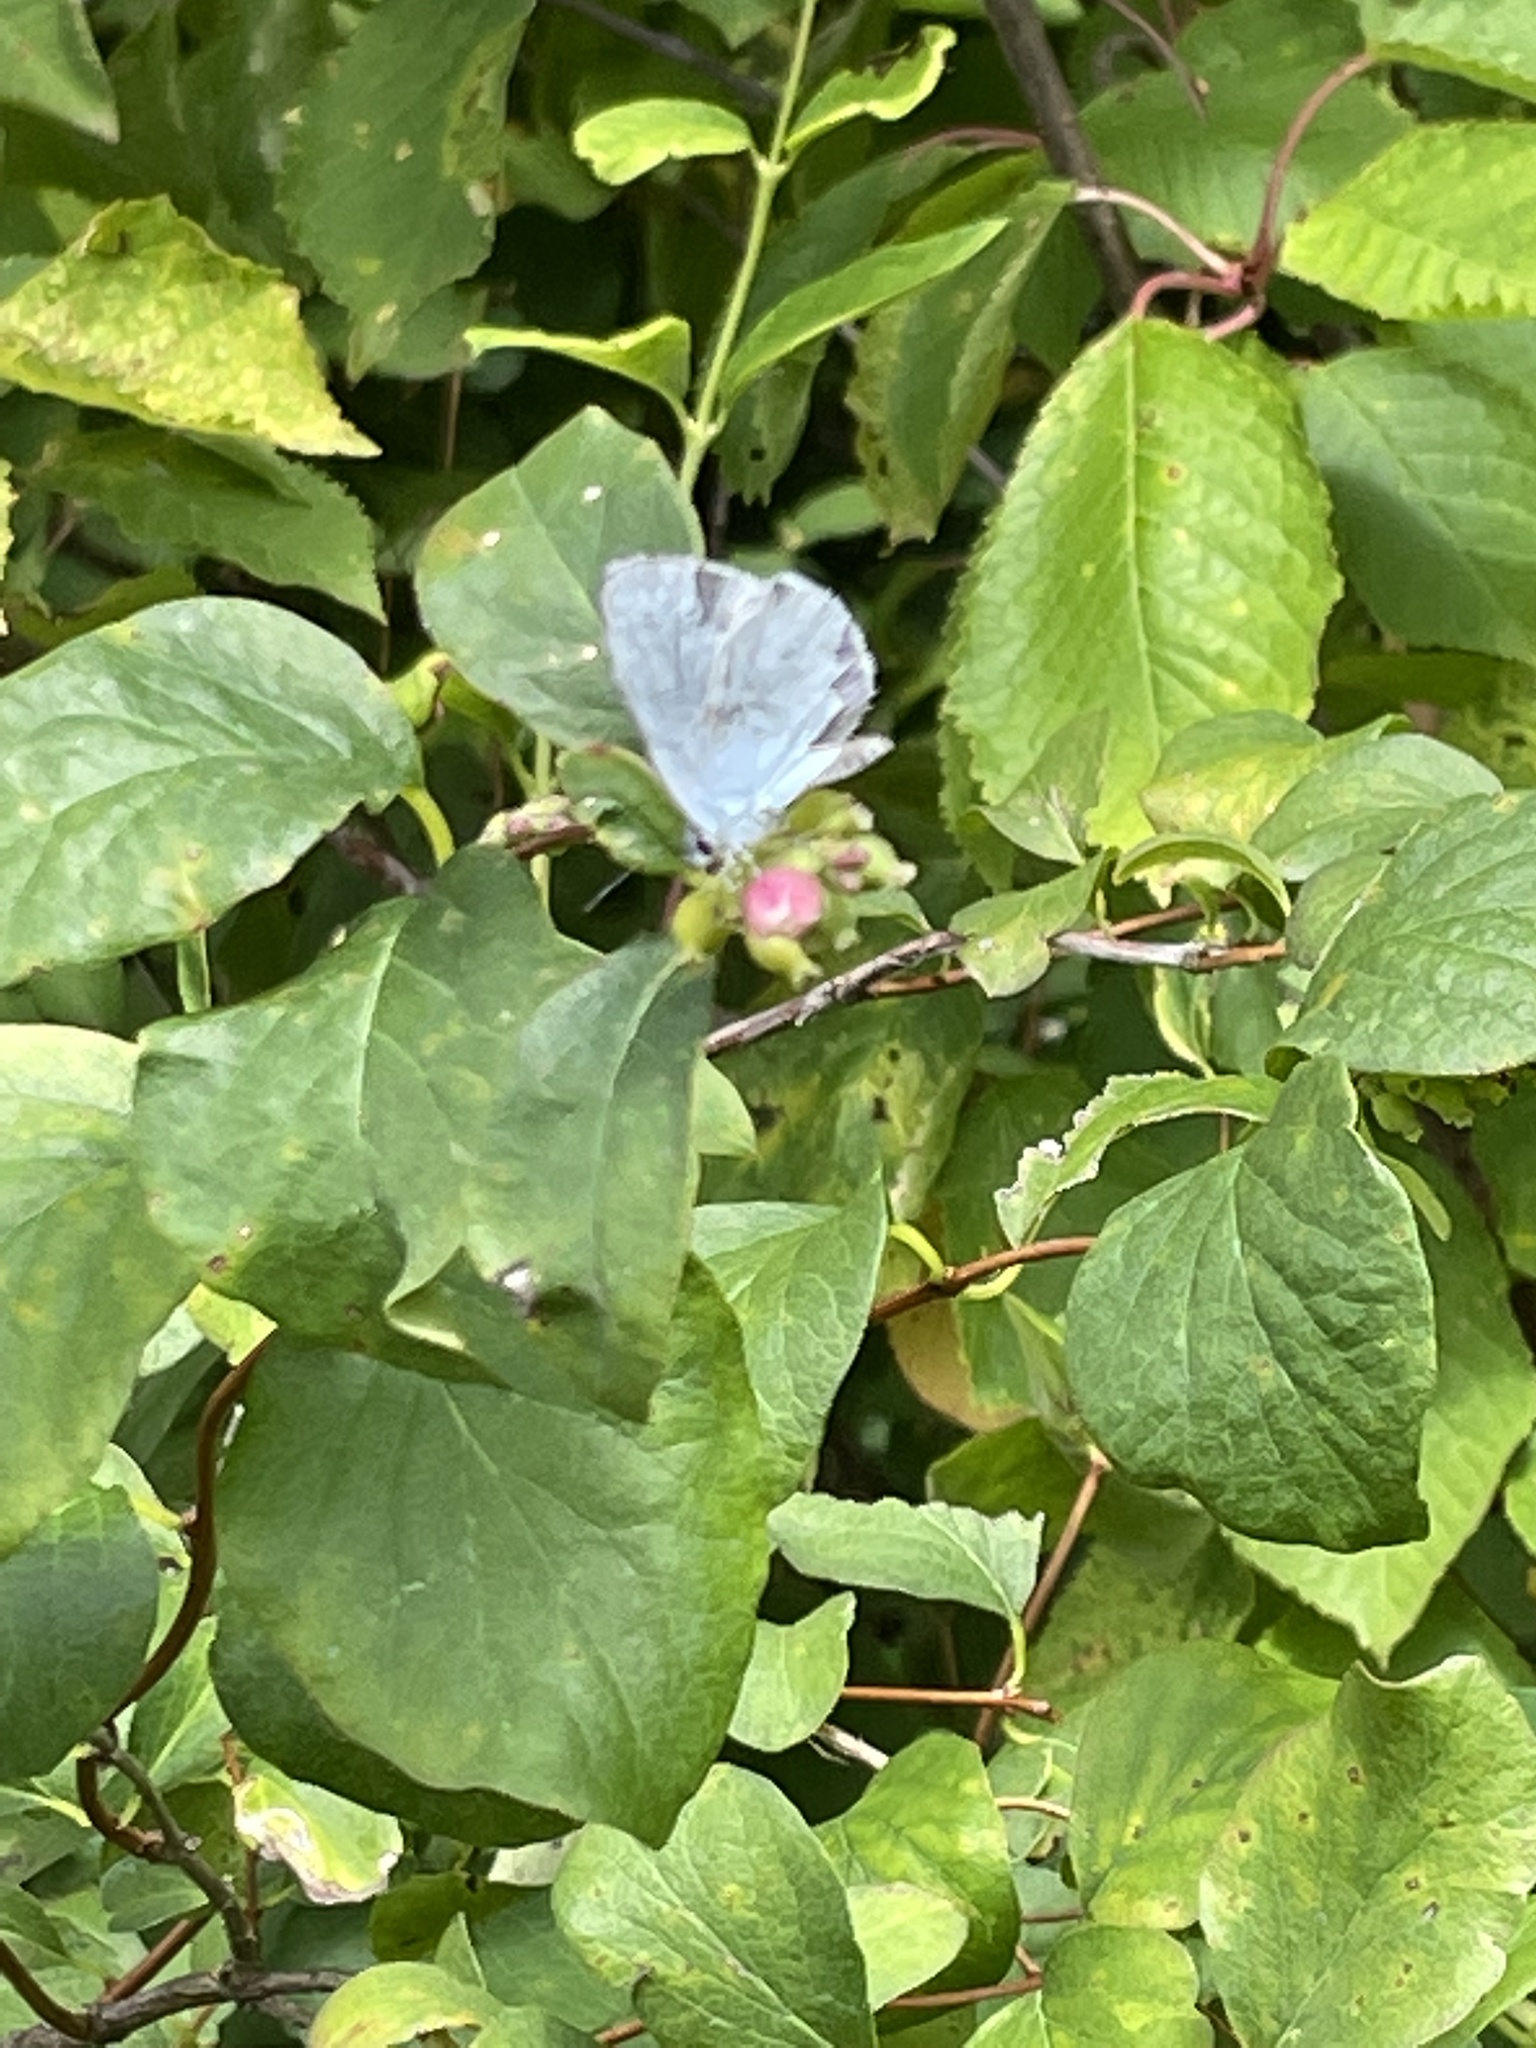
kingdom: Animalia
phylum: Arthropoda
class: Insecta
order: Lepidoptera
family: Lycaenidae
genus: Celastrina
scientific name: Celastrina argiolus
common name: Holly blue
